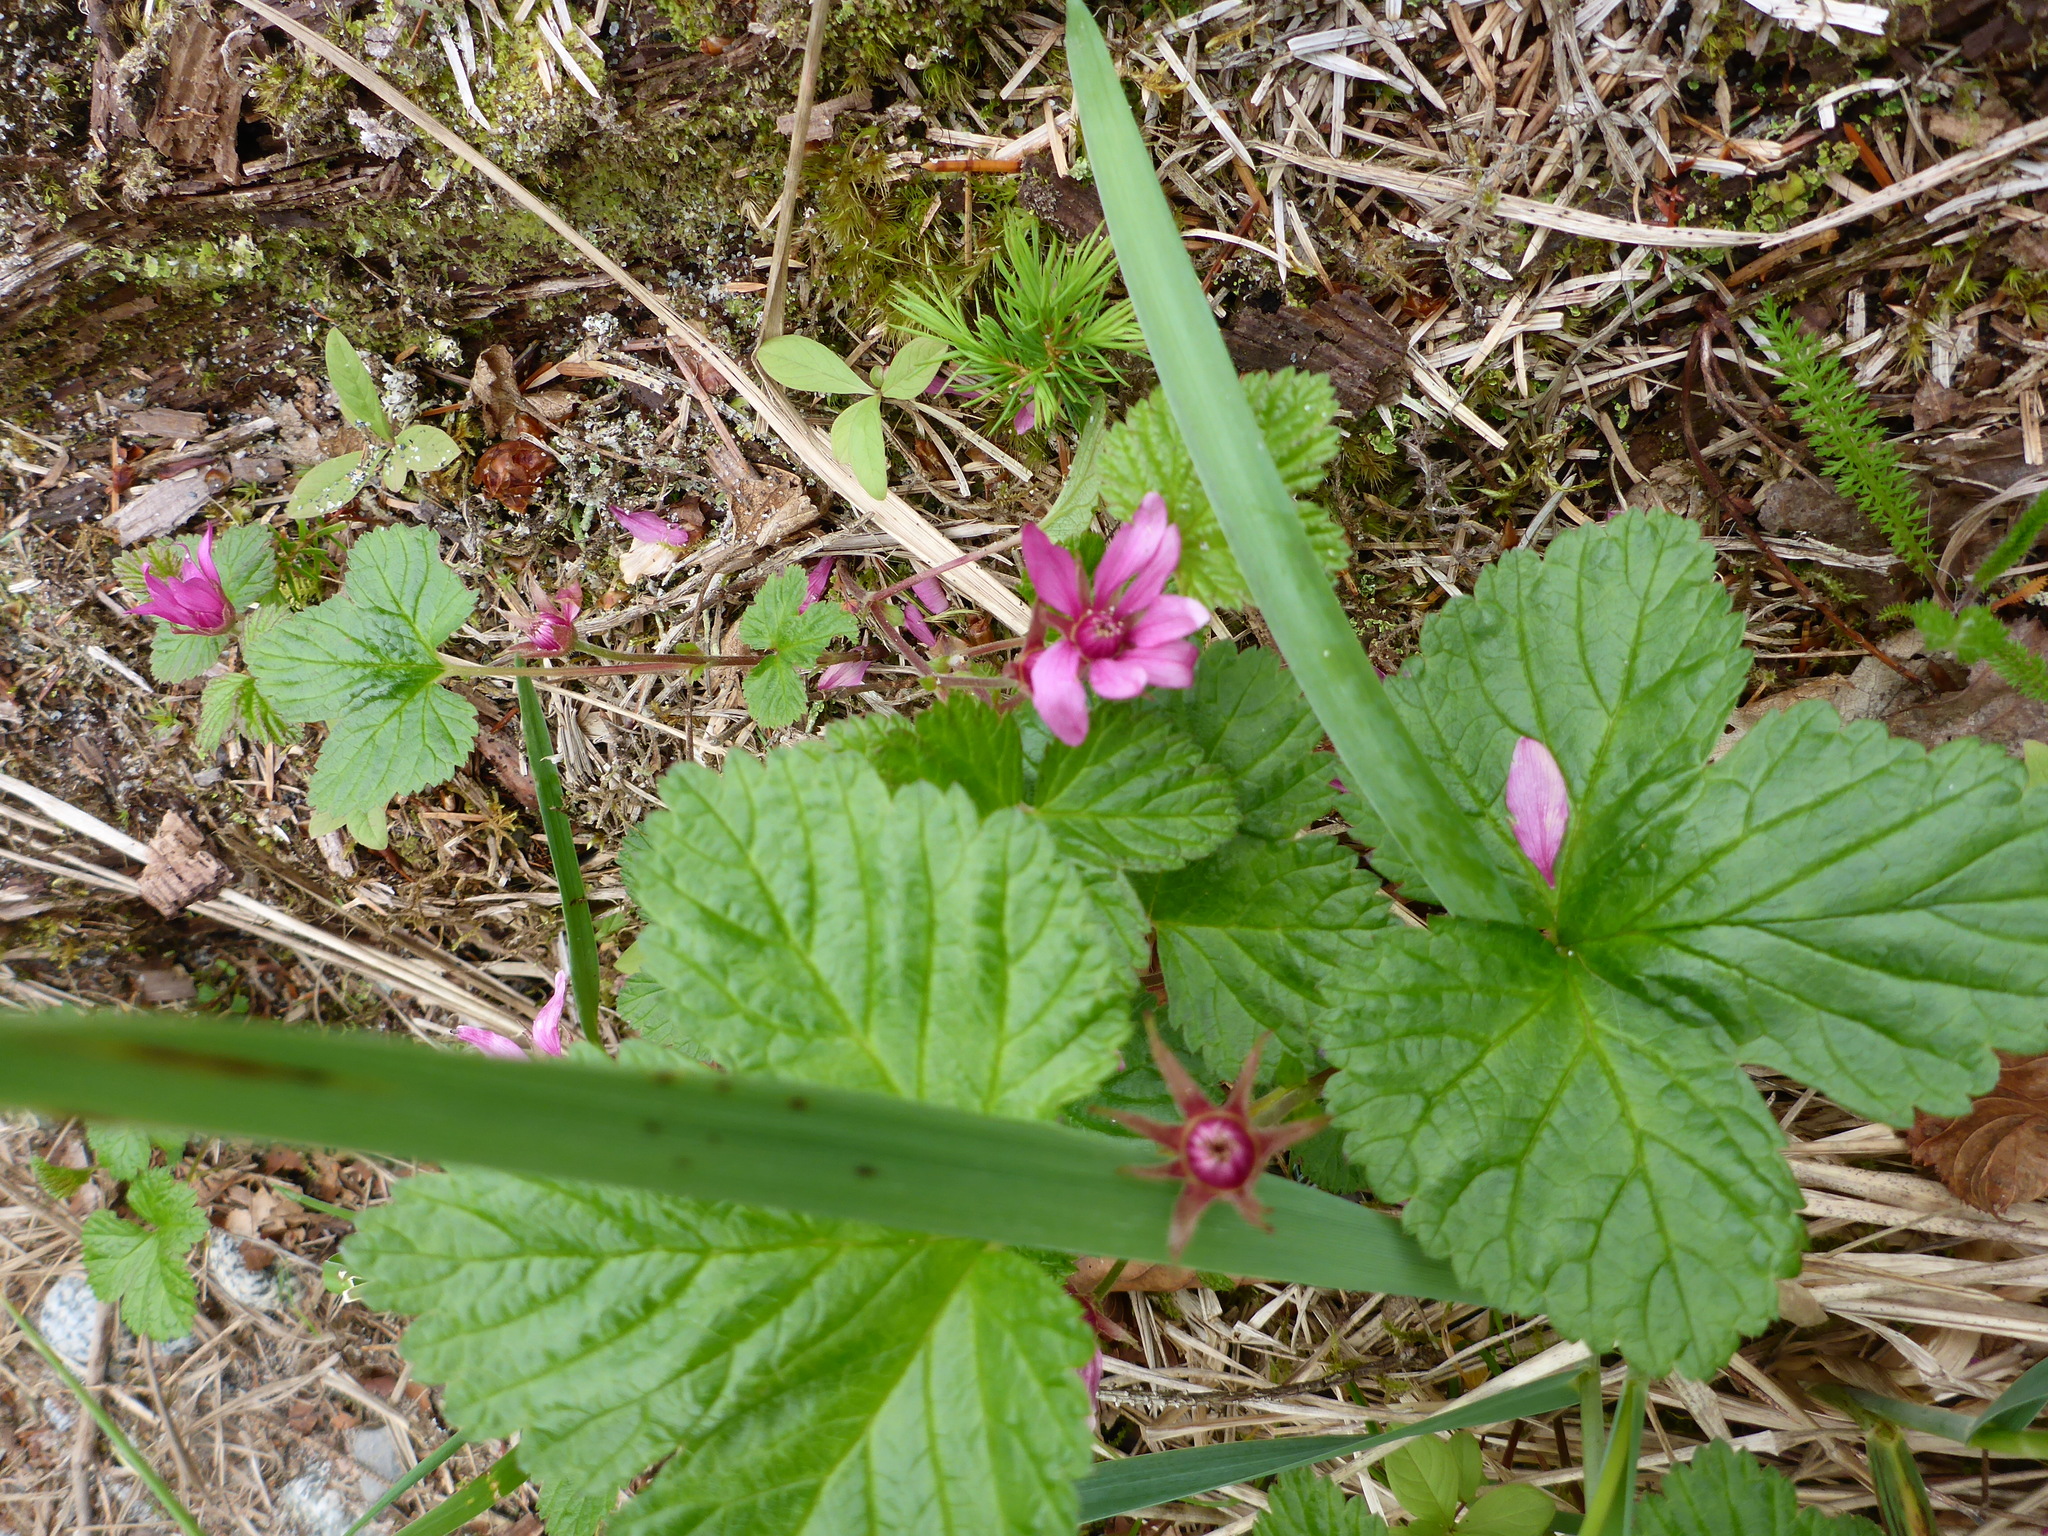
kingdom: Plantae
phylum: Tracheophyta
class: Magnoliopsida
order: Rosales
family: Rosaceae
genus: Rubus
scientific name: Rubus arcticus
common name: Arctic bramble
